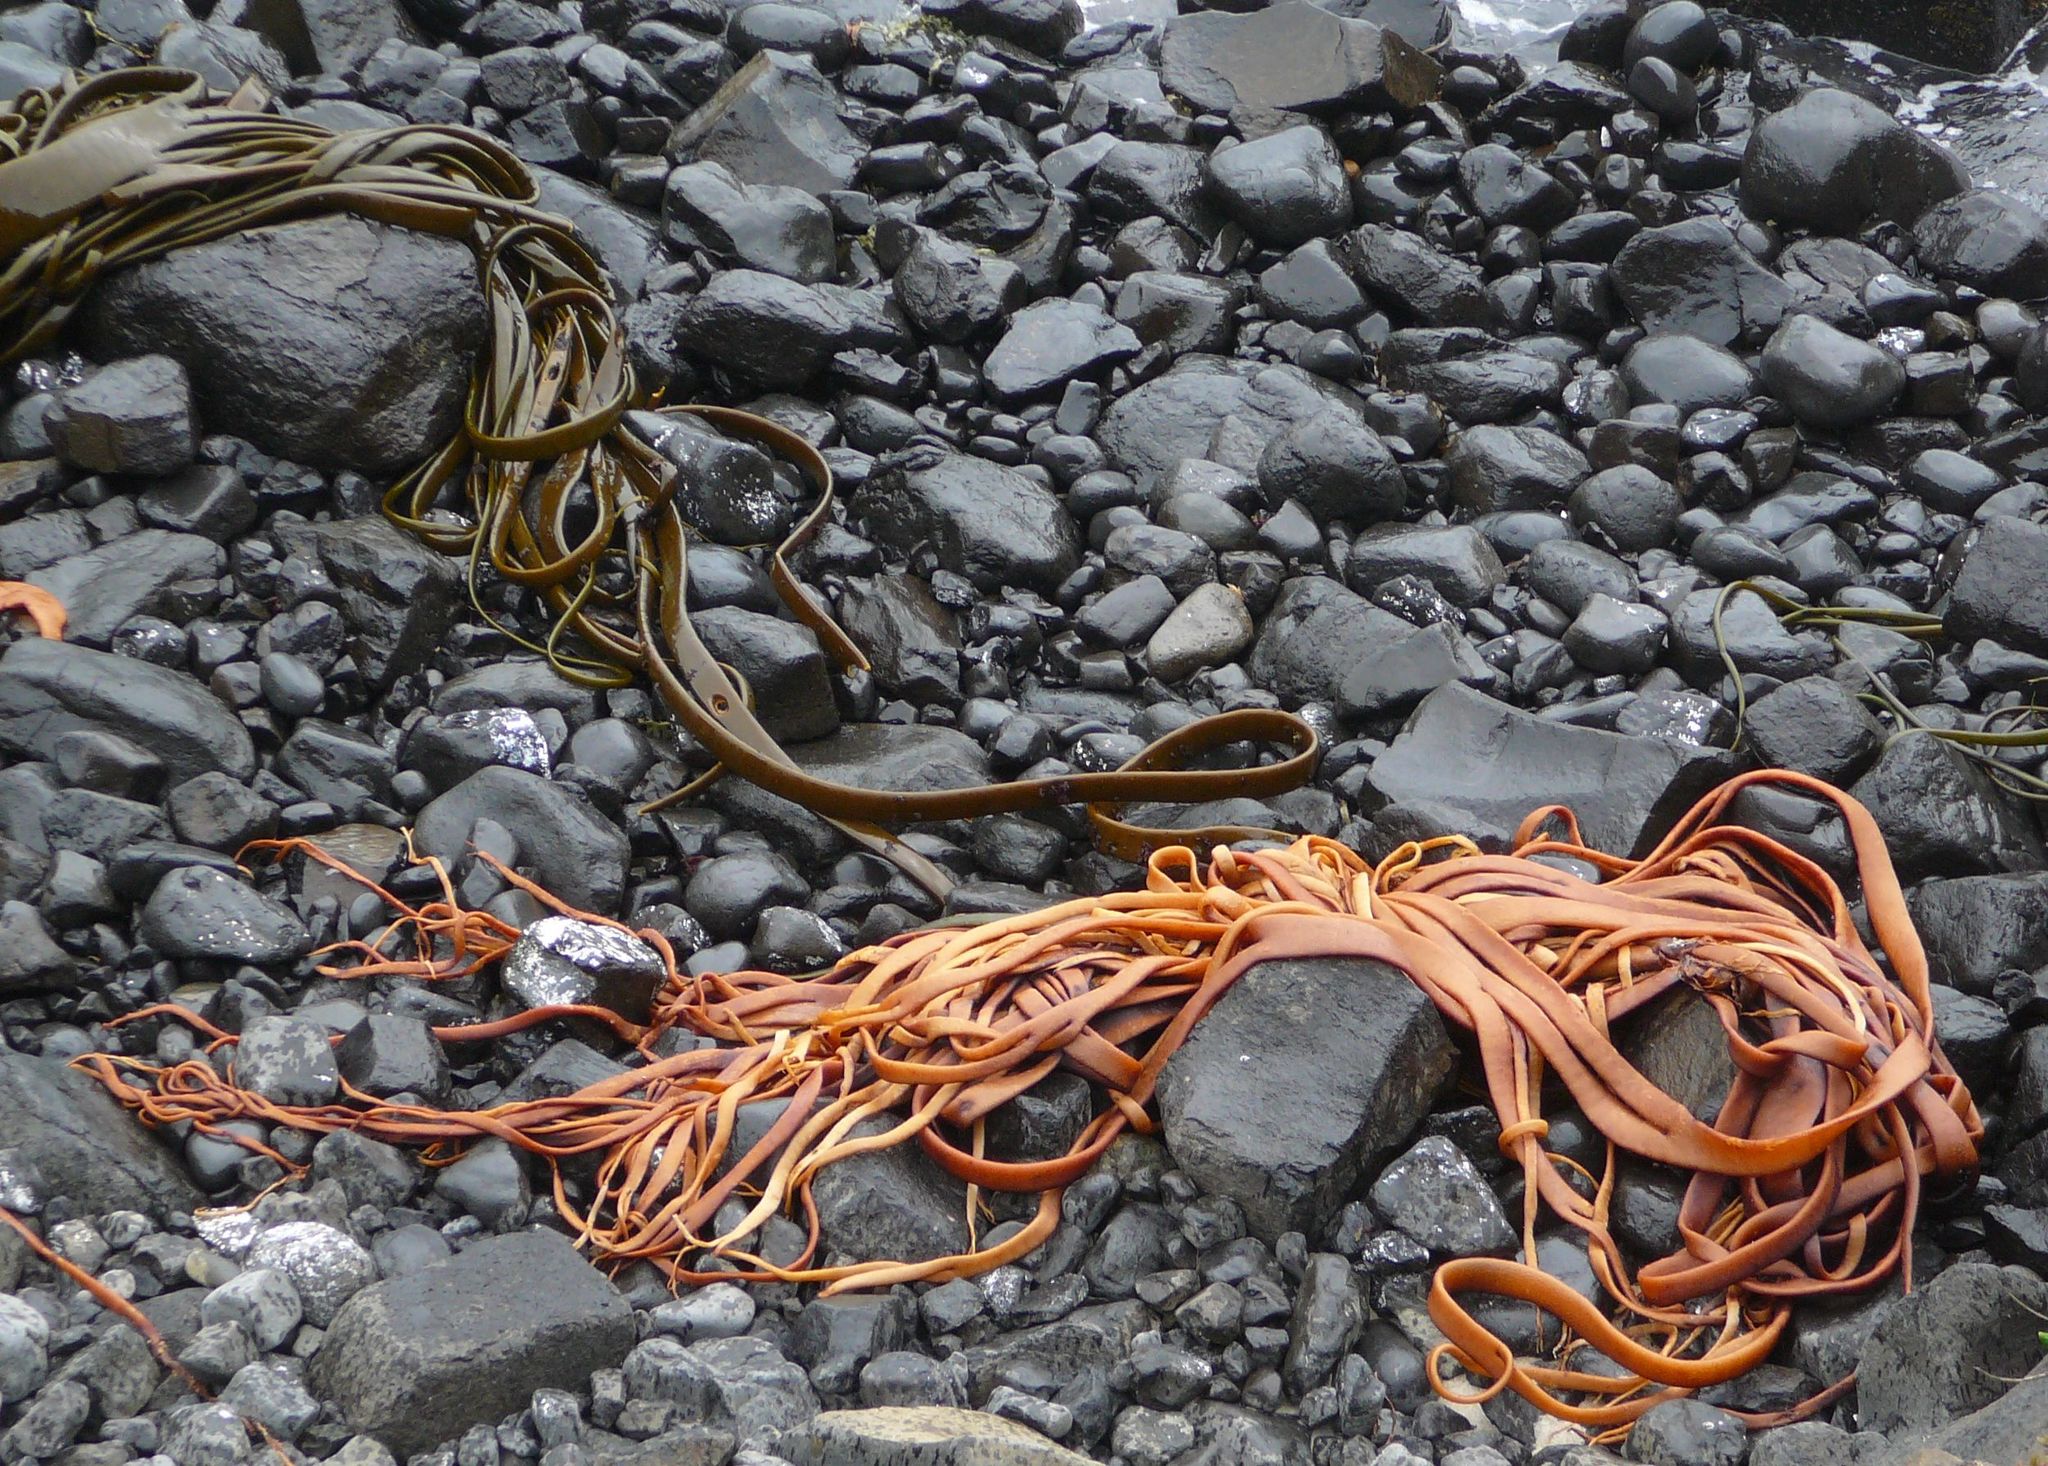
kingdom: Chromista
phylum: Ochrophyta
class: Phaeophyceae
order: Fucales
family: Durvillaeaceae
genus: Durvillaea
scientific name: Durvillaea antarctica
